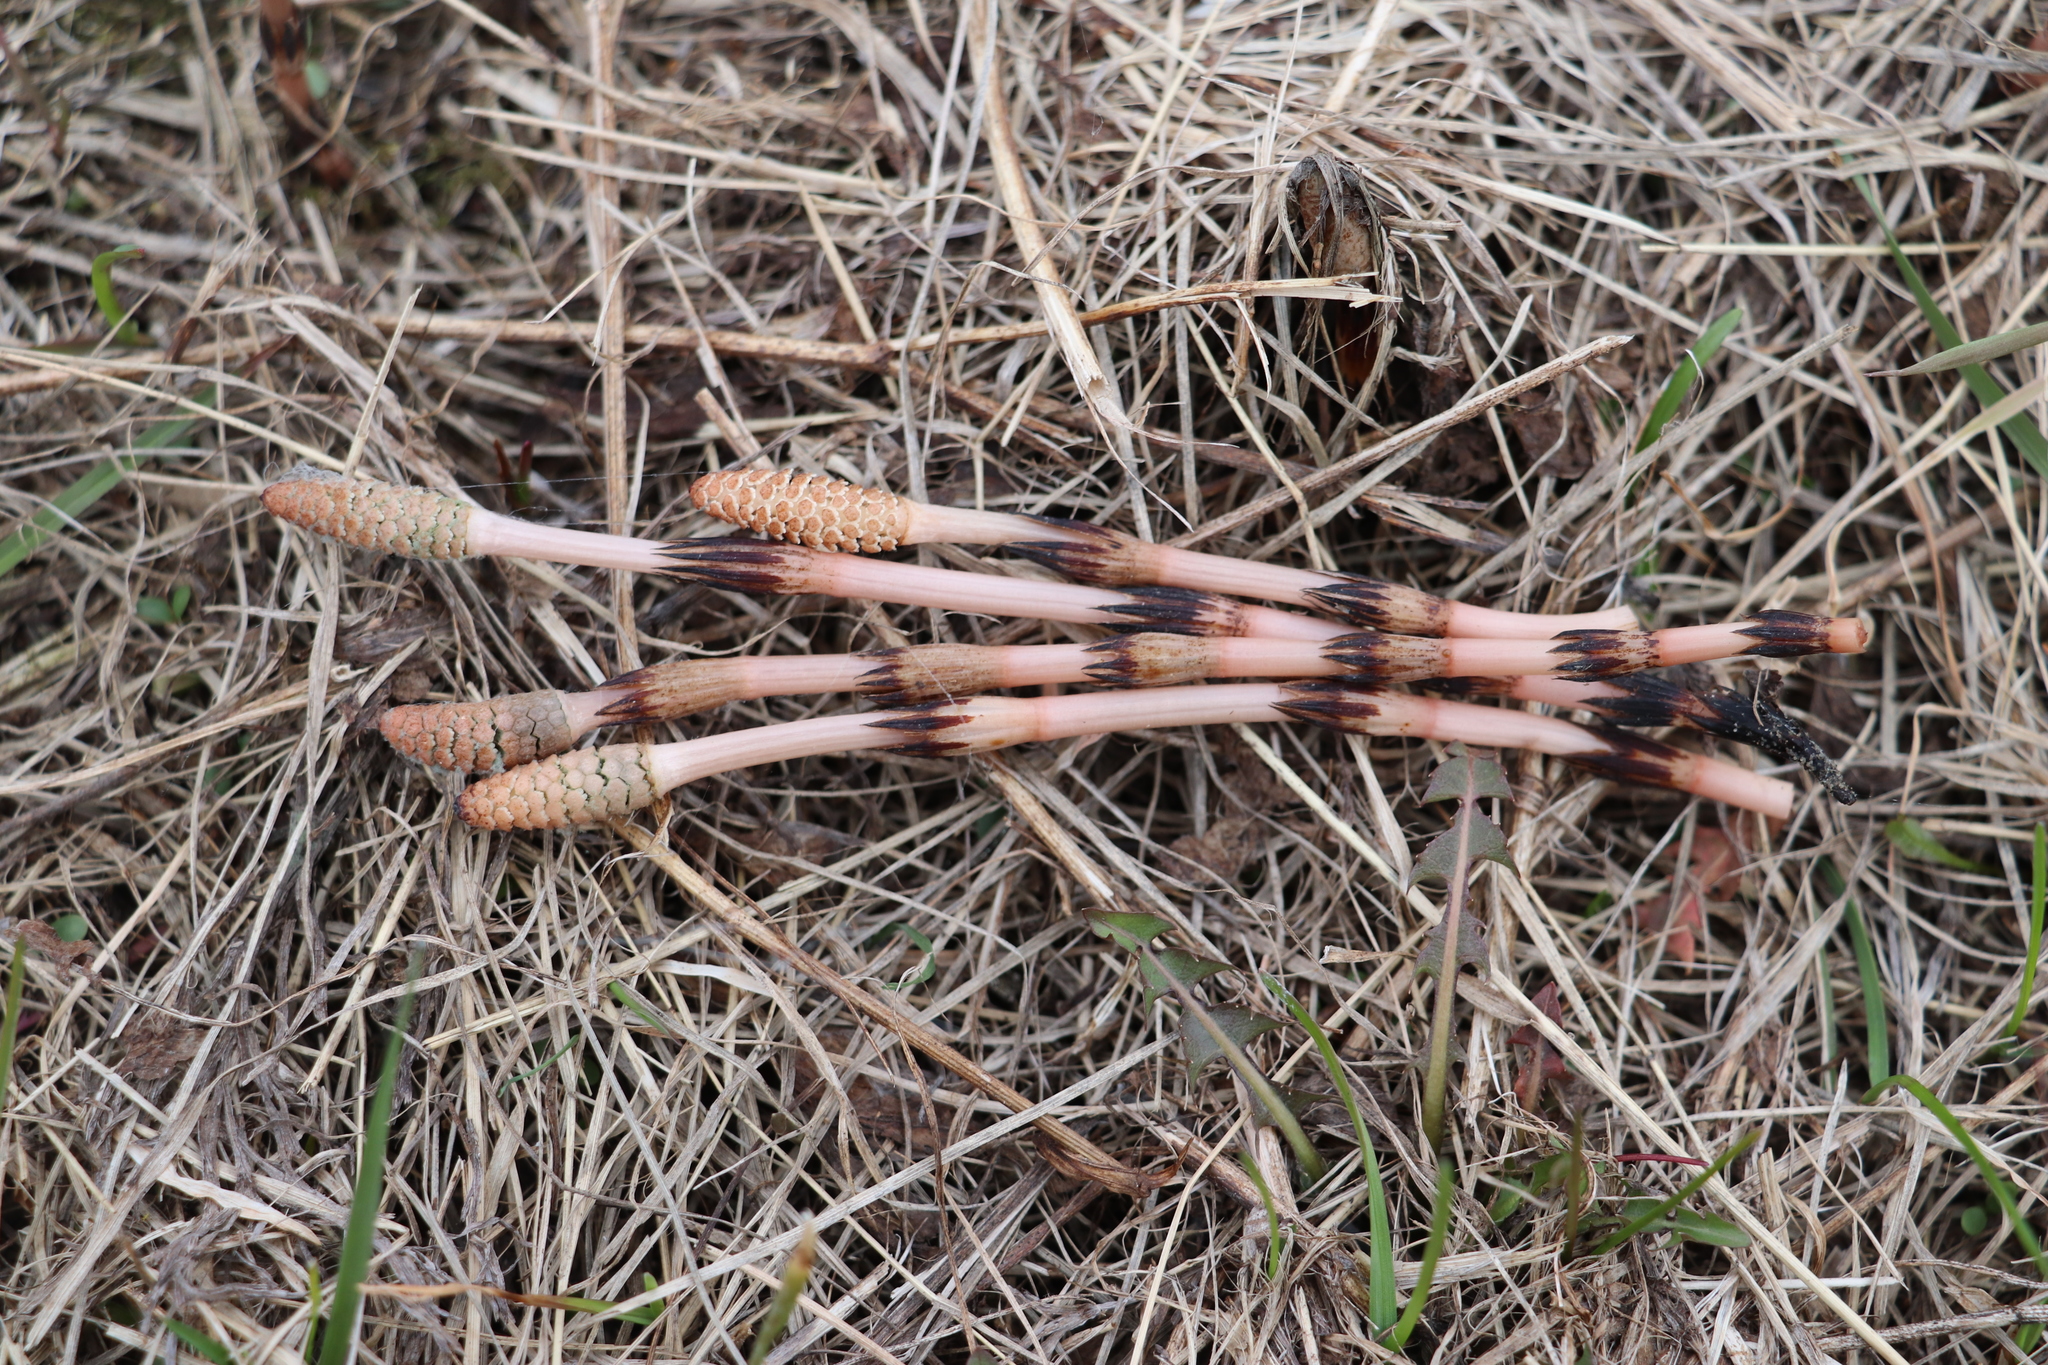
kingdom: Plantae
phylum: Tracheophyta
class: Polypodiopsida
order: Equisetales
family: Equisetaceae
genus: Equisetum
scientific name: Equisetum arvense
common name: Field horsetail
